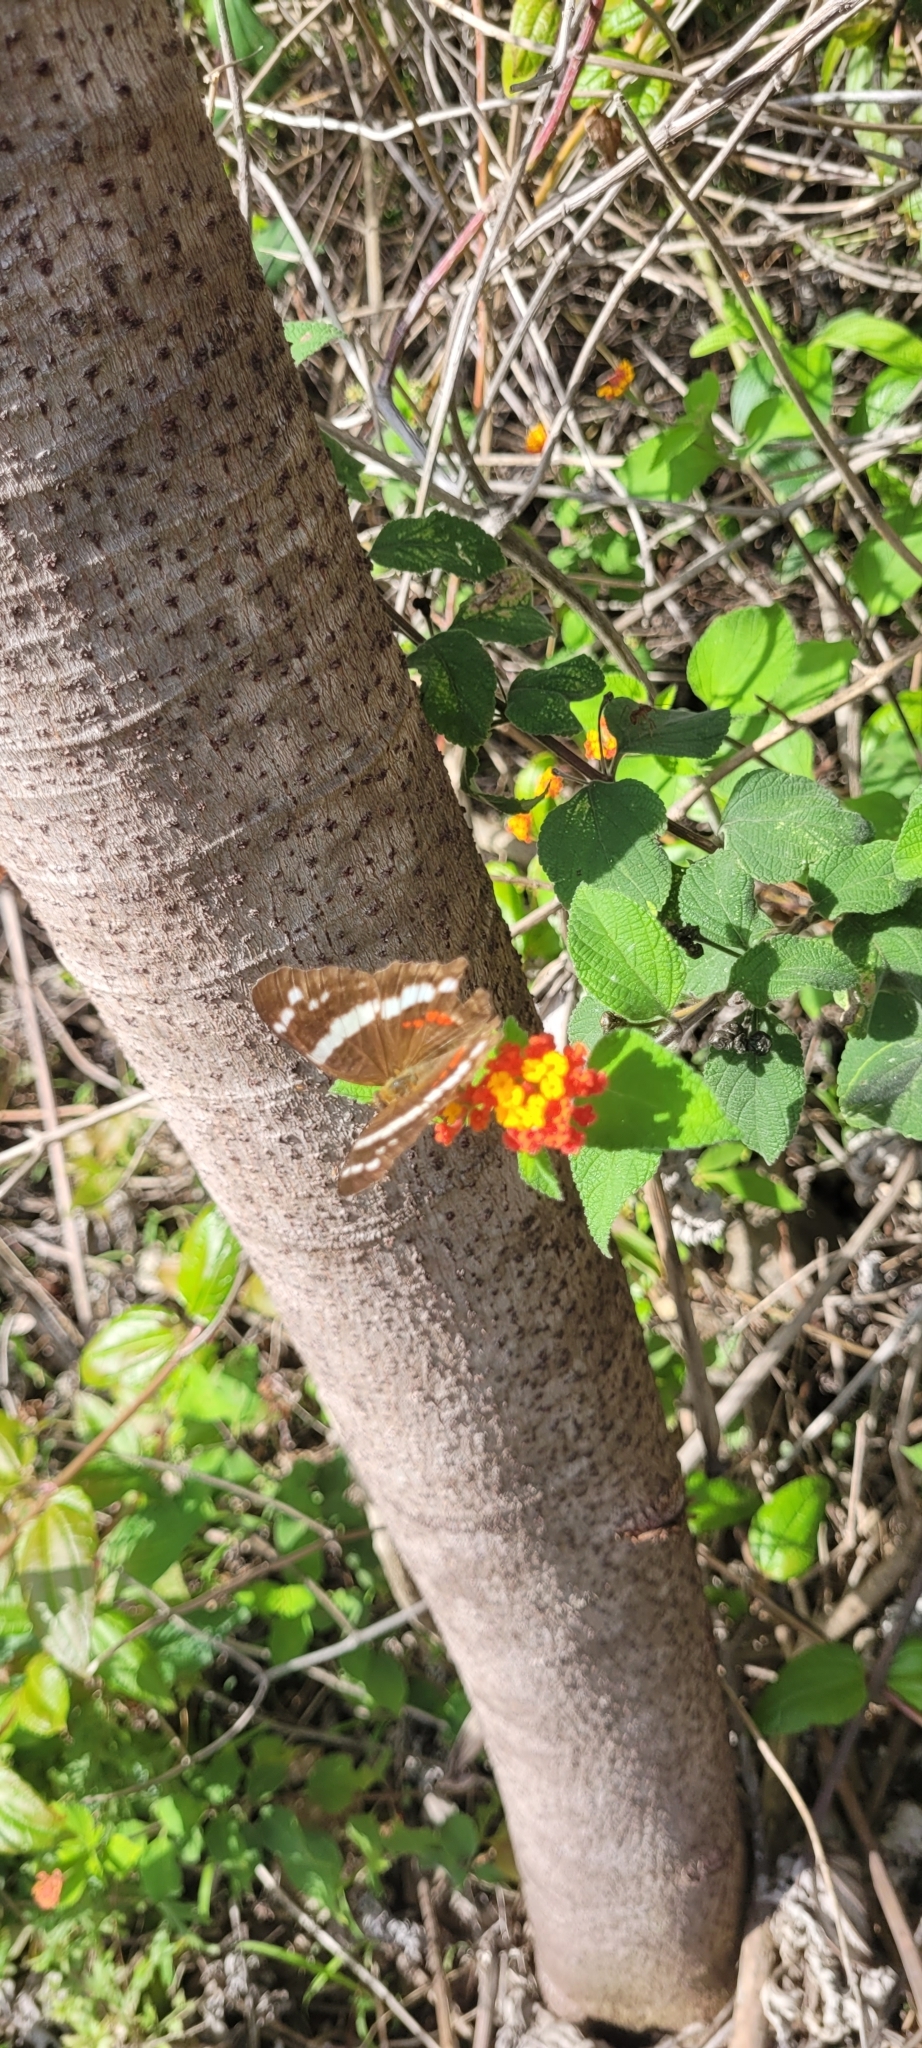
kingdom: Animalia
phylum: Arthropoda
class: Insecta
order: Lepidoptera
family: Nymphalidae
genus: Anartia
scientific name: Anartia fatima
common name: Banded peacock
